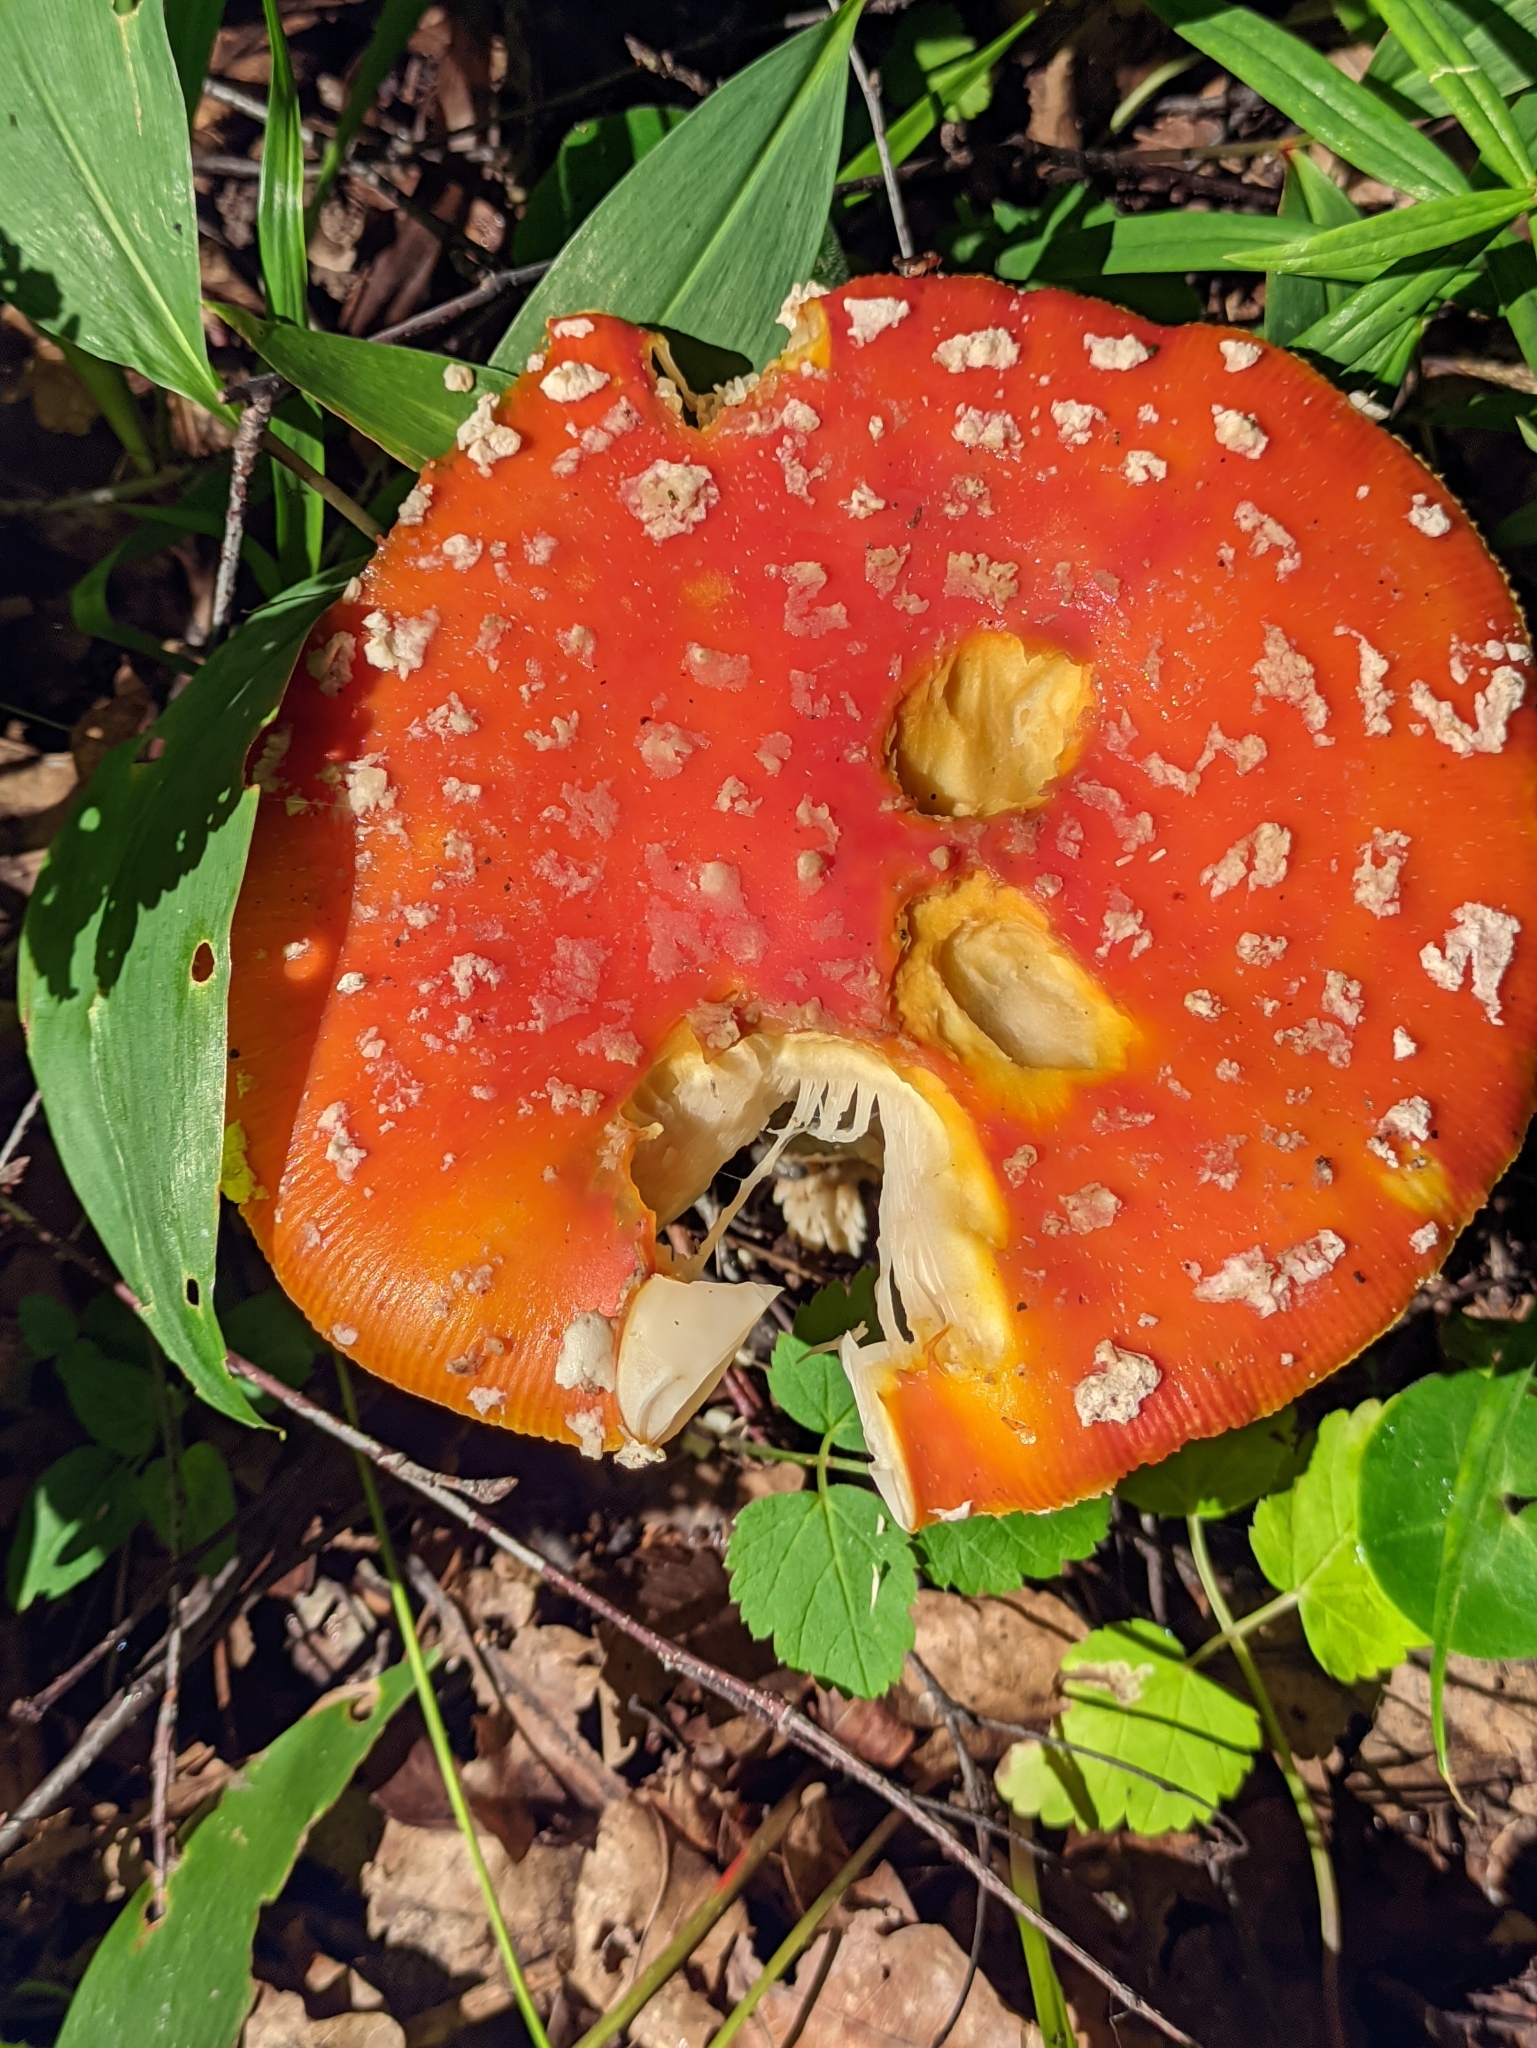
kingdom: Fungi
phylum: Basidiomycota
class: Agaricomycetes
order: Agaricales
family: Amanitaceae
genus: Amanita
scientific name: Amanita muscaria
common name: Fly agaric
